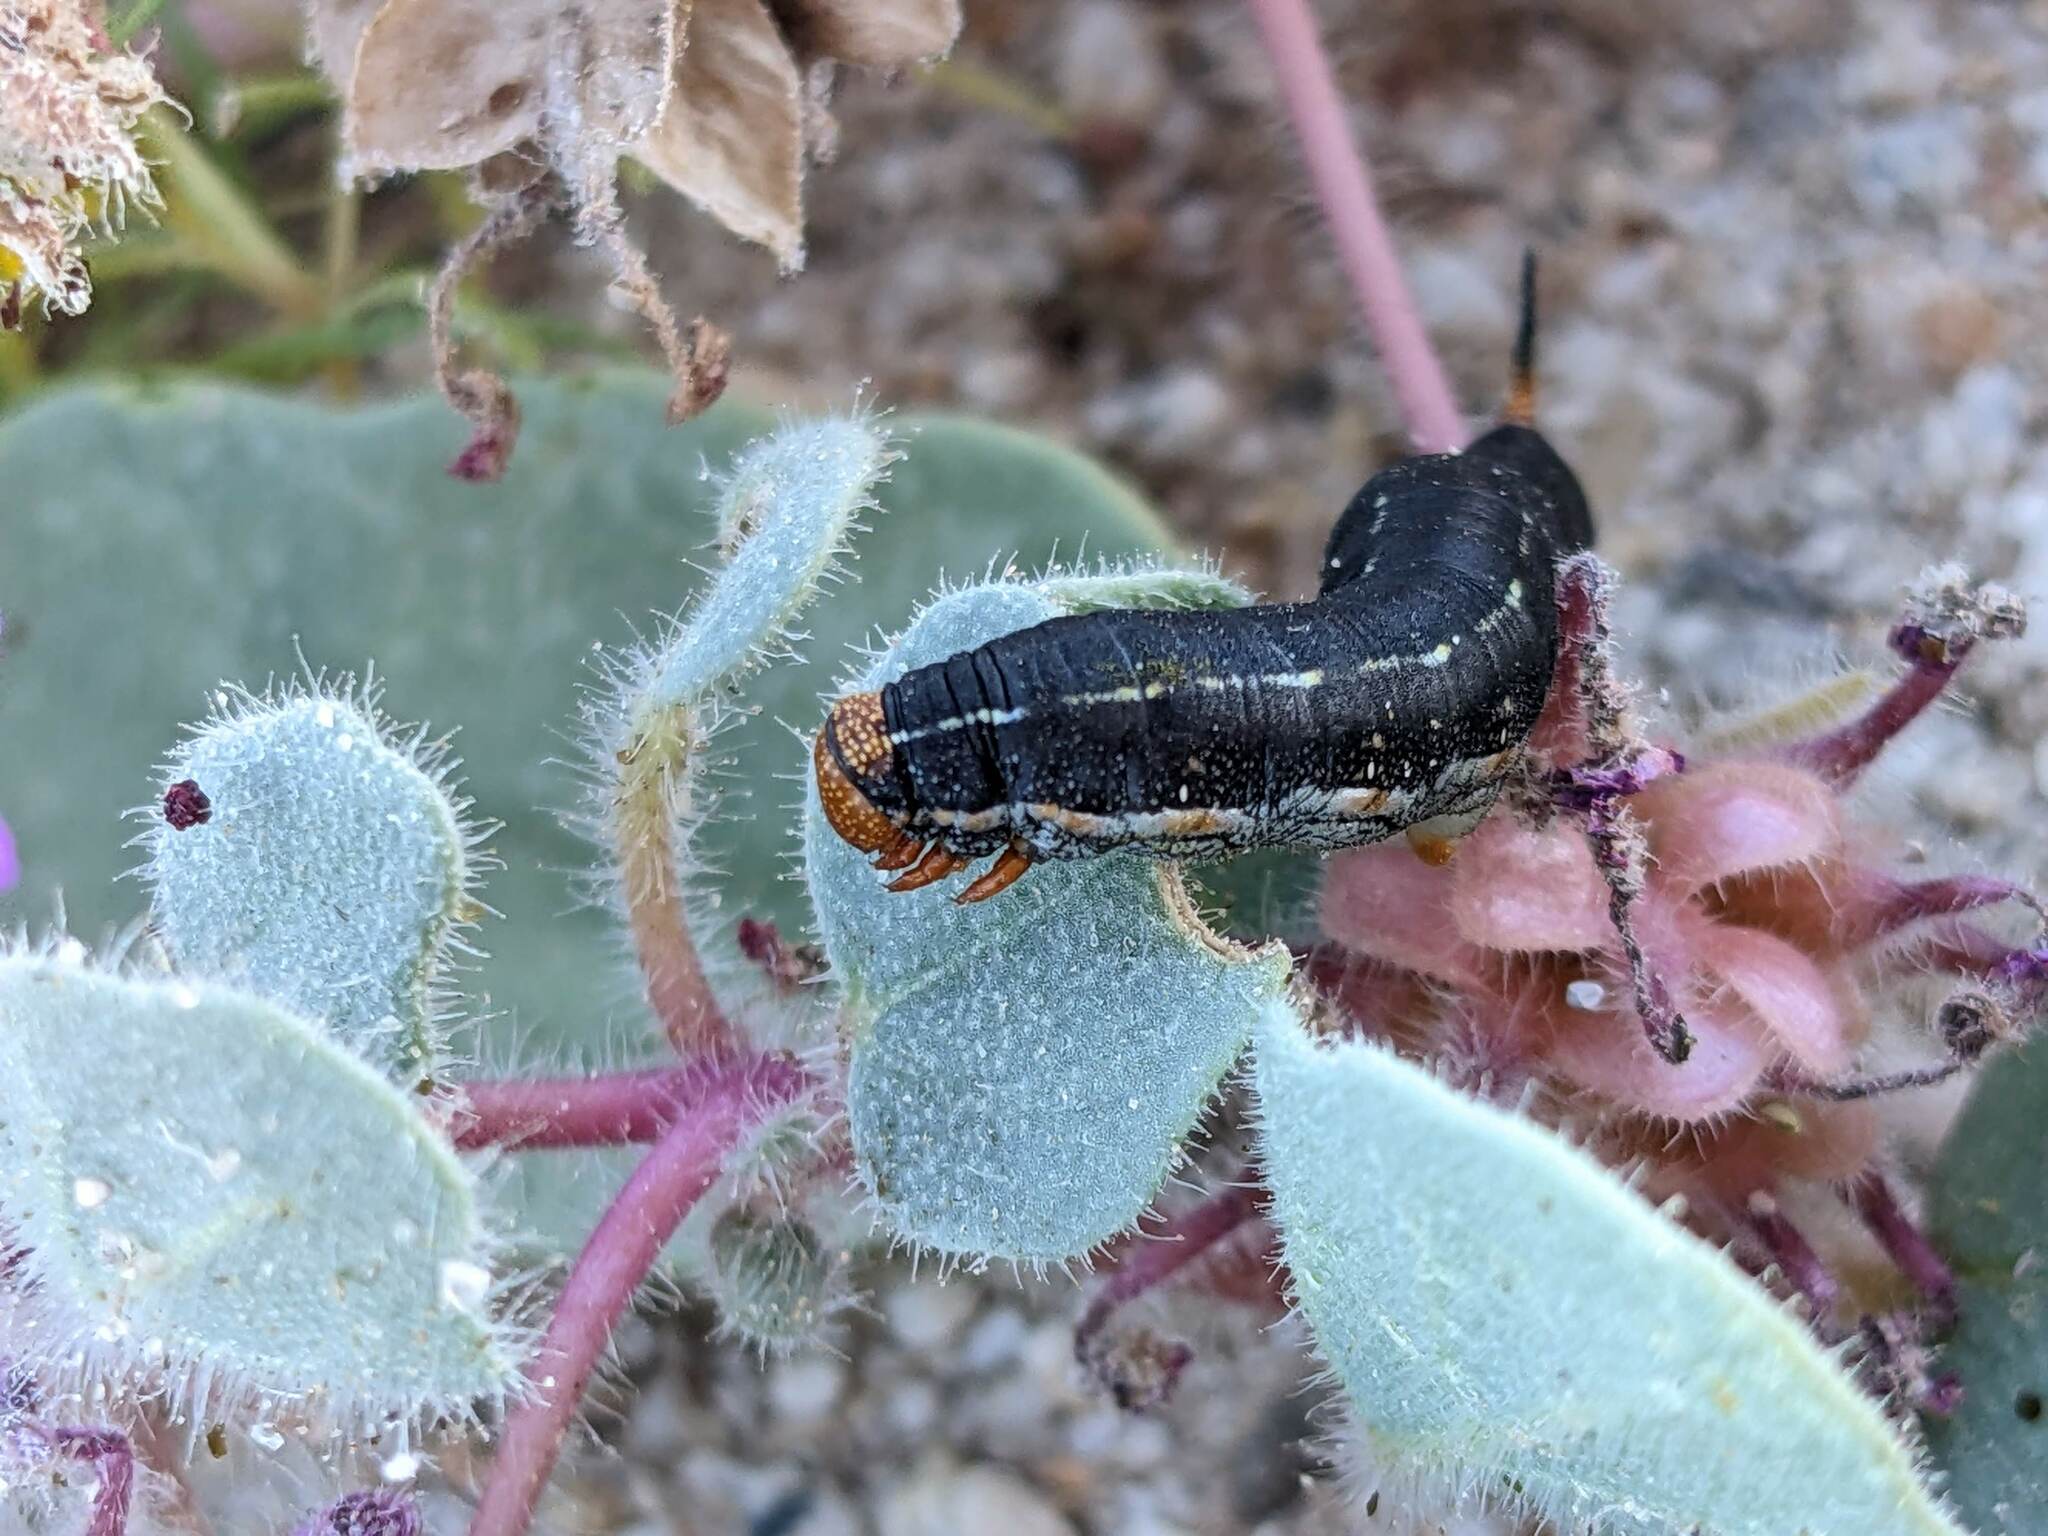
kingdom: Animalia
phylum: Arthropoda
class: Insecta
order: Lepidoptera
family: Sphingidae
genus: Hyles
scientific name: Hyles lineata
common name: White-lined sphinx
